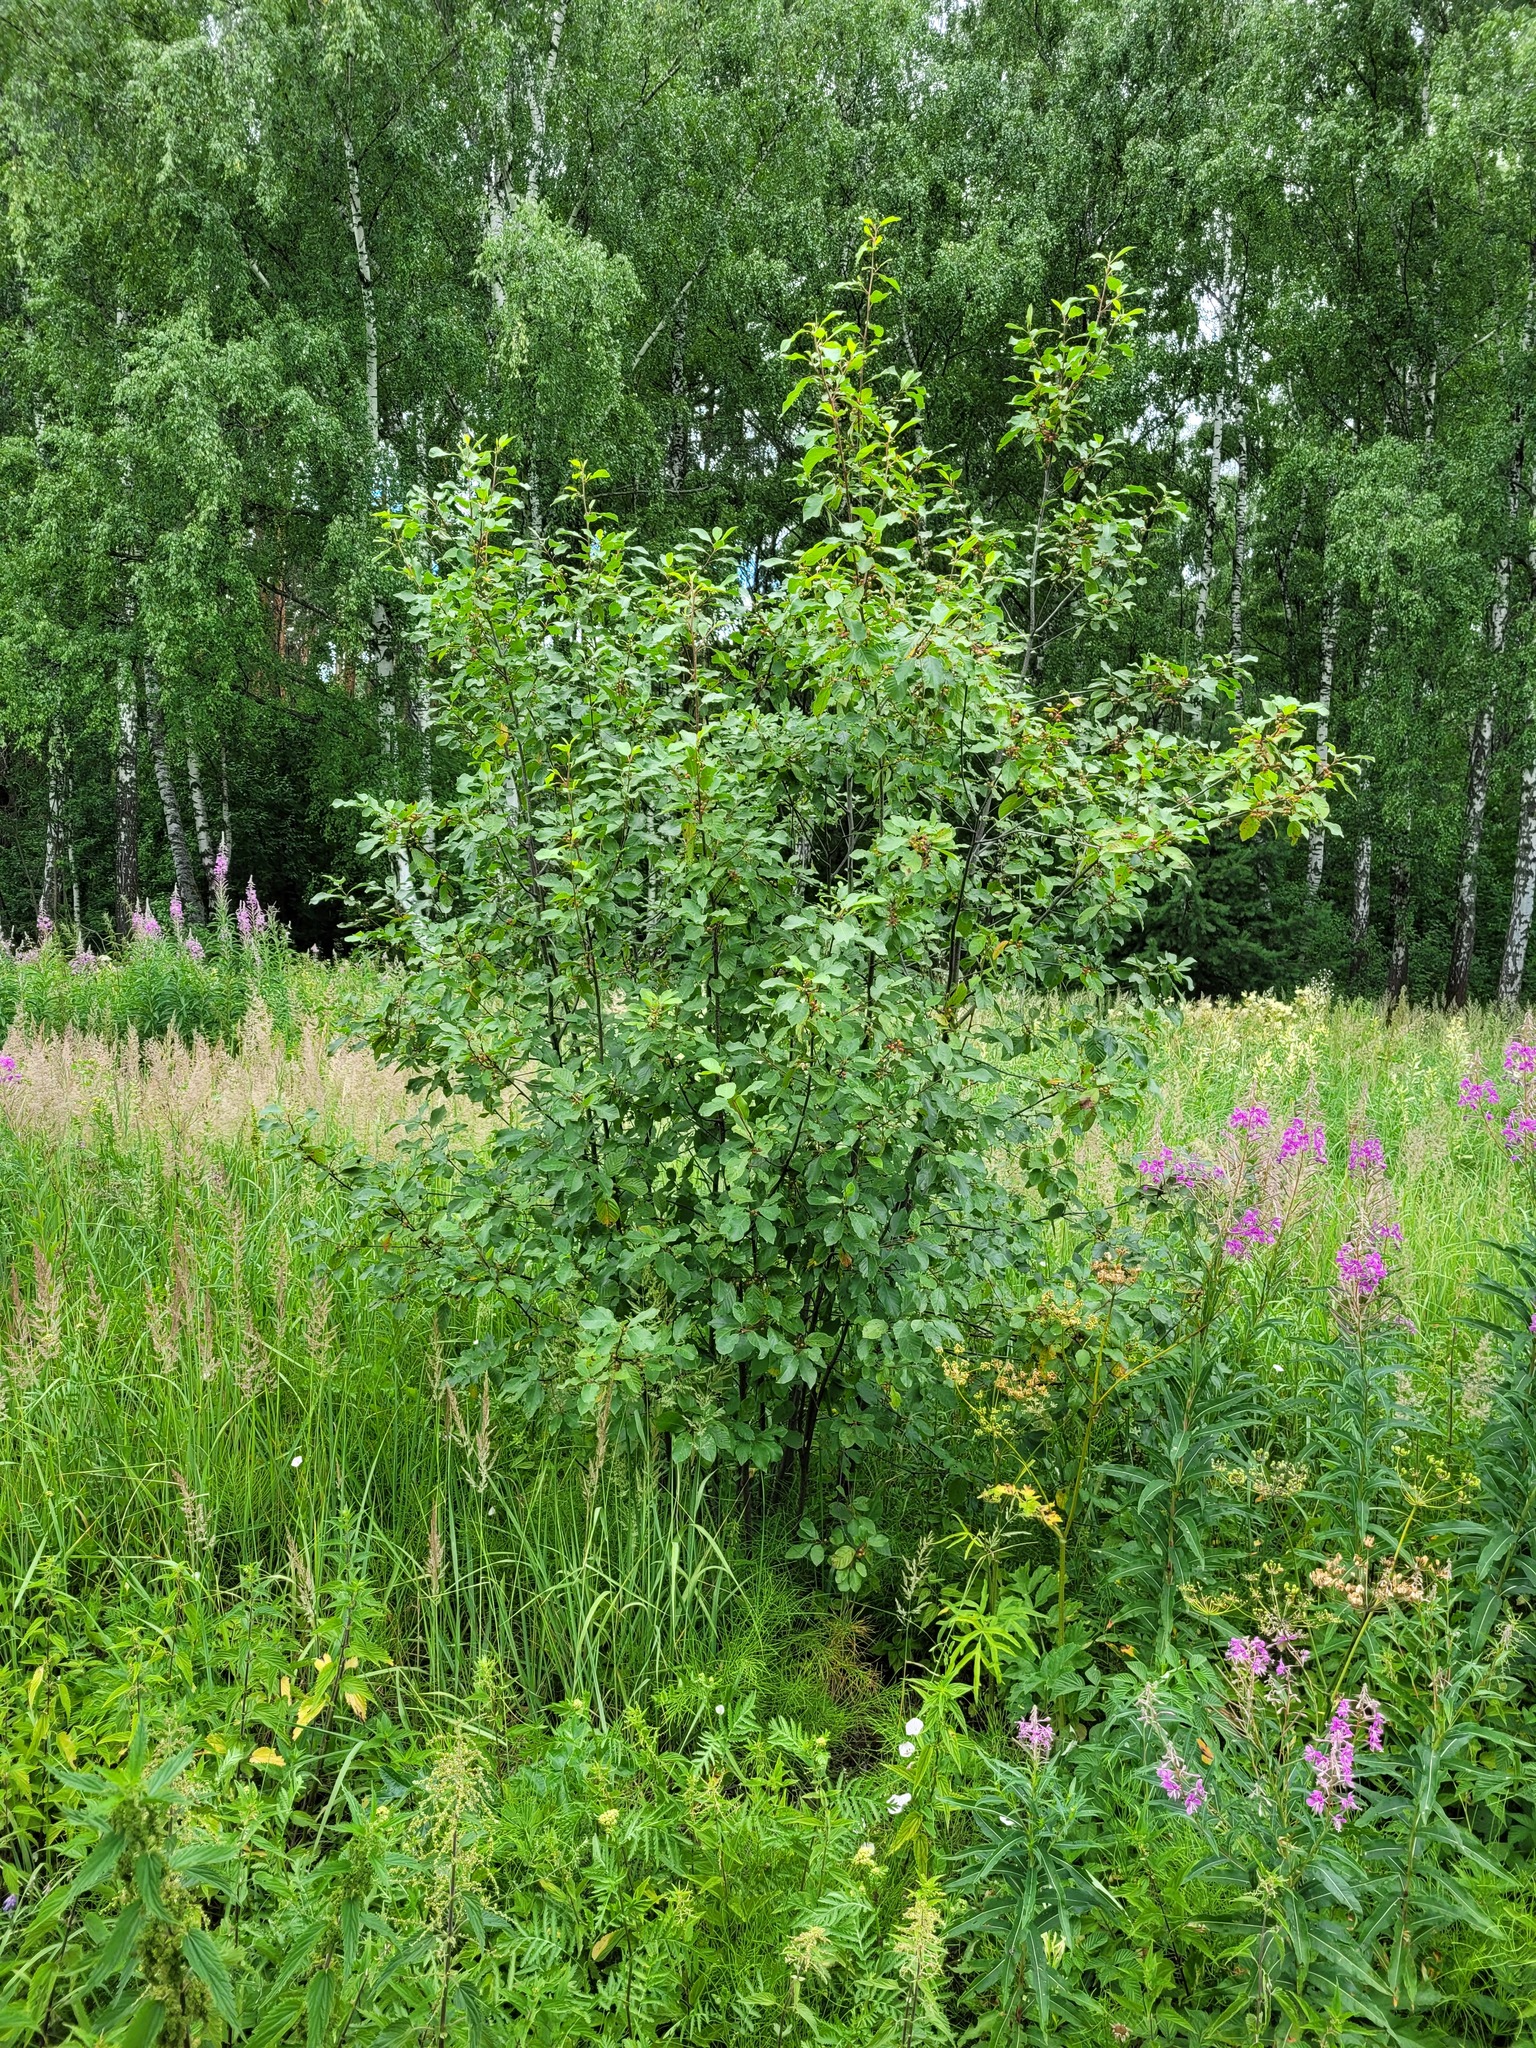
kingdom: Plantae
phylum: Tracheophyta
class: Magnoliopsida
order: Rosales
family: Rhamnaceae
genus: Frangula
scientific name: Frangula alnus
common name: Alder buckthorn
